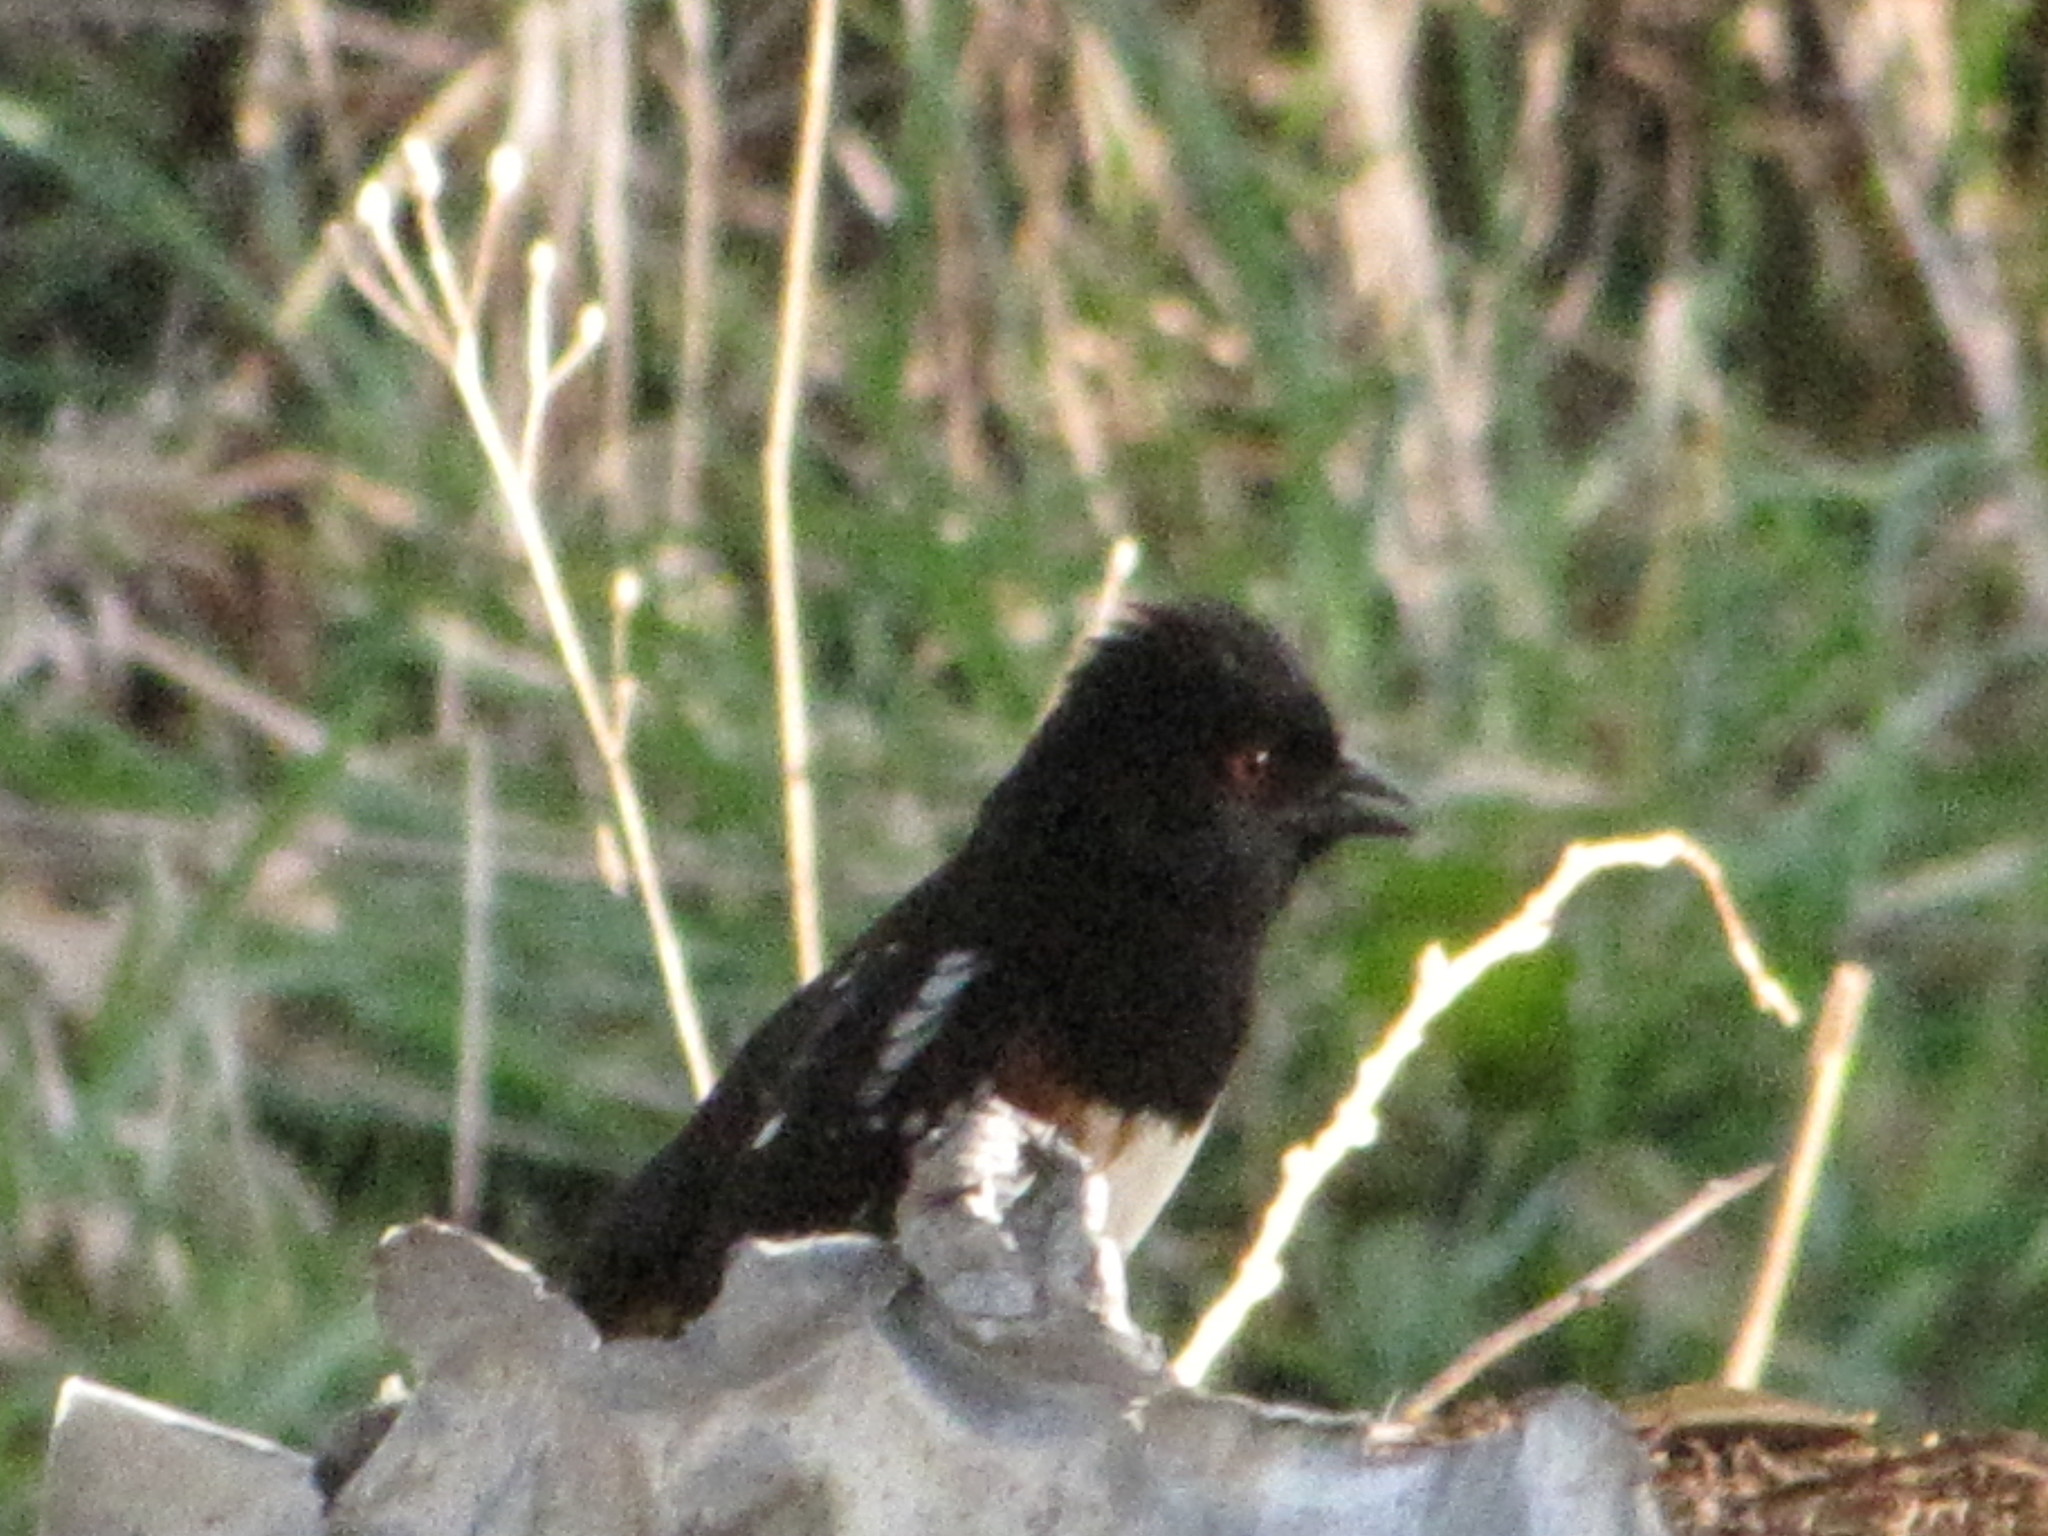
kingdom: Animalia
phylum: Chordata
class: Aves
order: Passeriformes
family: Passerellidae
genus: Pipilo
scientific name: Pipilo maculatus
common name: Spotted towhee
